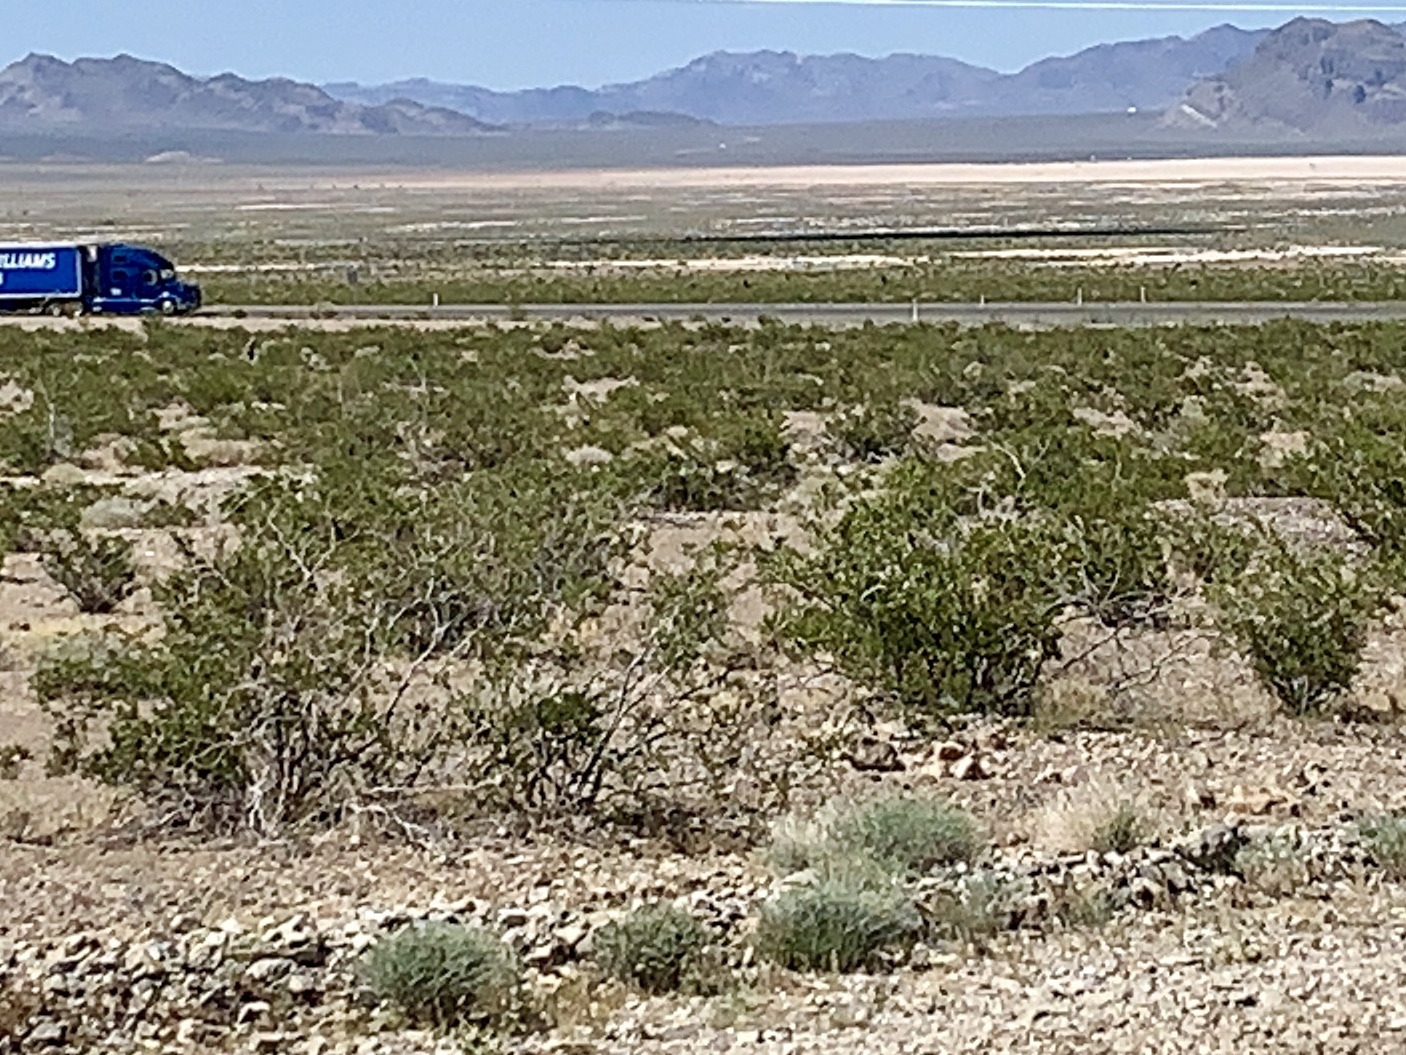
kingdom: Plantae
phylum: Tracheophyta
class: Magnoliopsida
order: Zygophyllales
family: Zygophyllaceae
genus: Larrea
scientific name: Larrea tridentata
